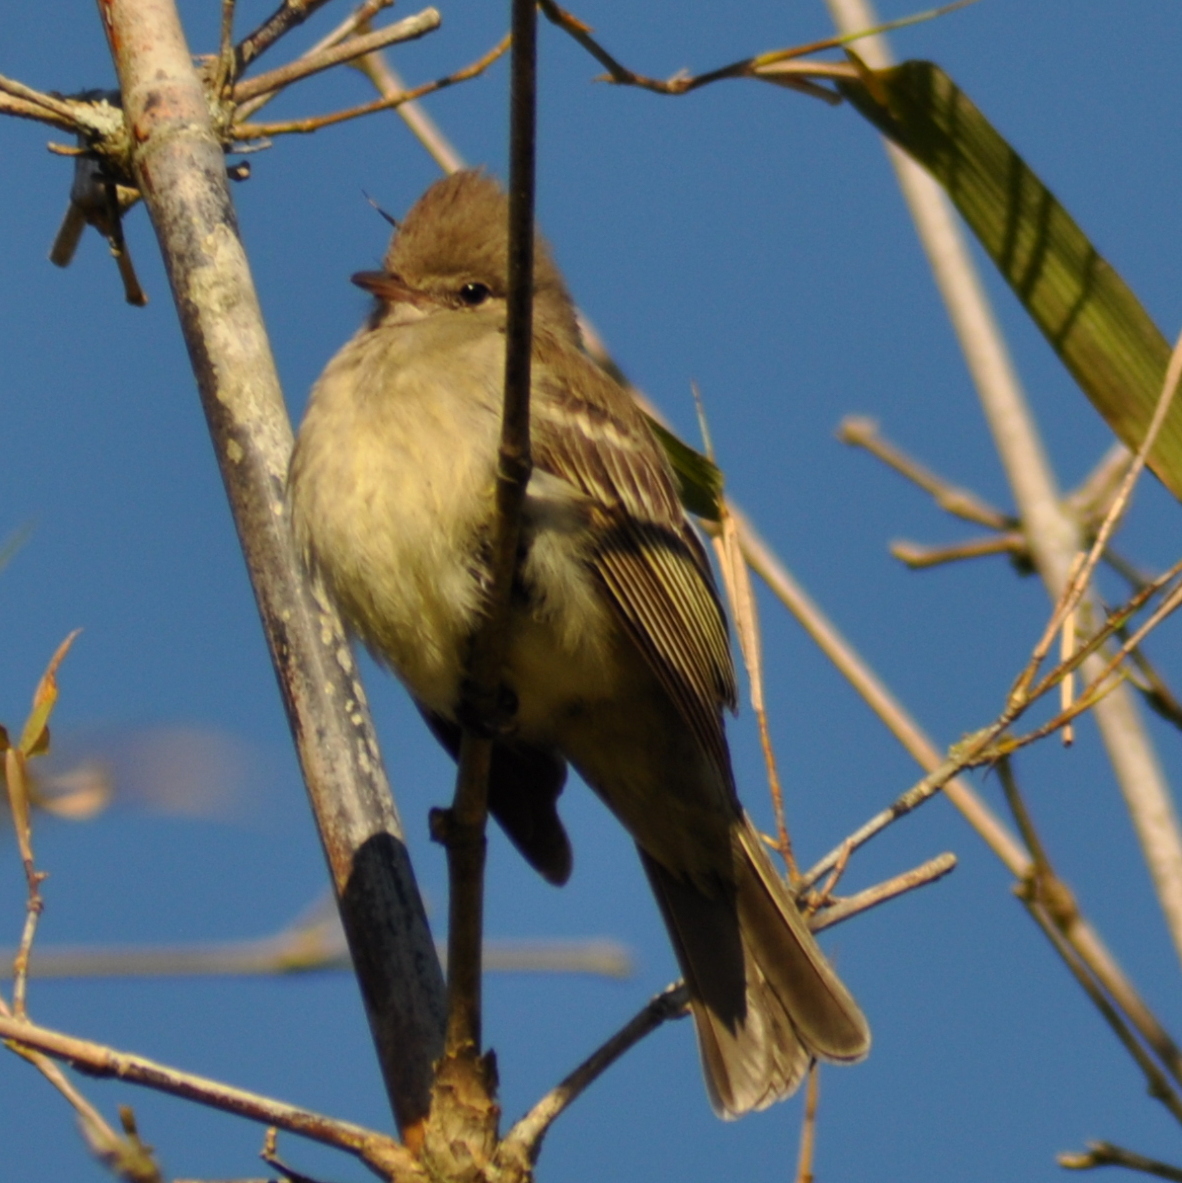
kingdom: Animalia
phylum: Chordata
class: Aves
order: Passeriformes
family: Tyrannidae
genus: Elaenia
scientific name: Elaenia flavogaster
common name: Yellow-bellied elaenia
